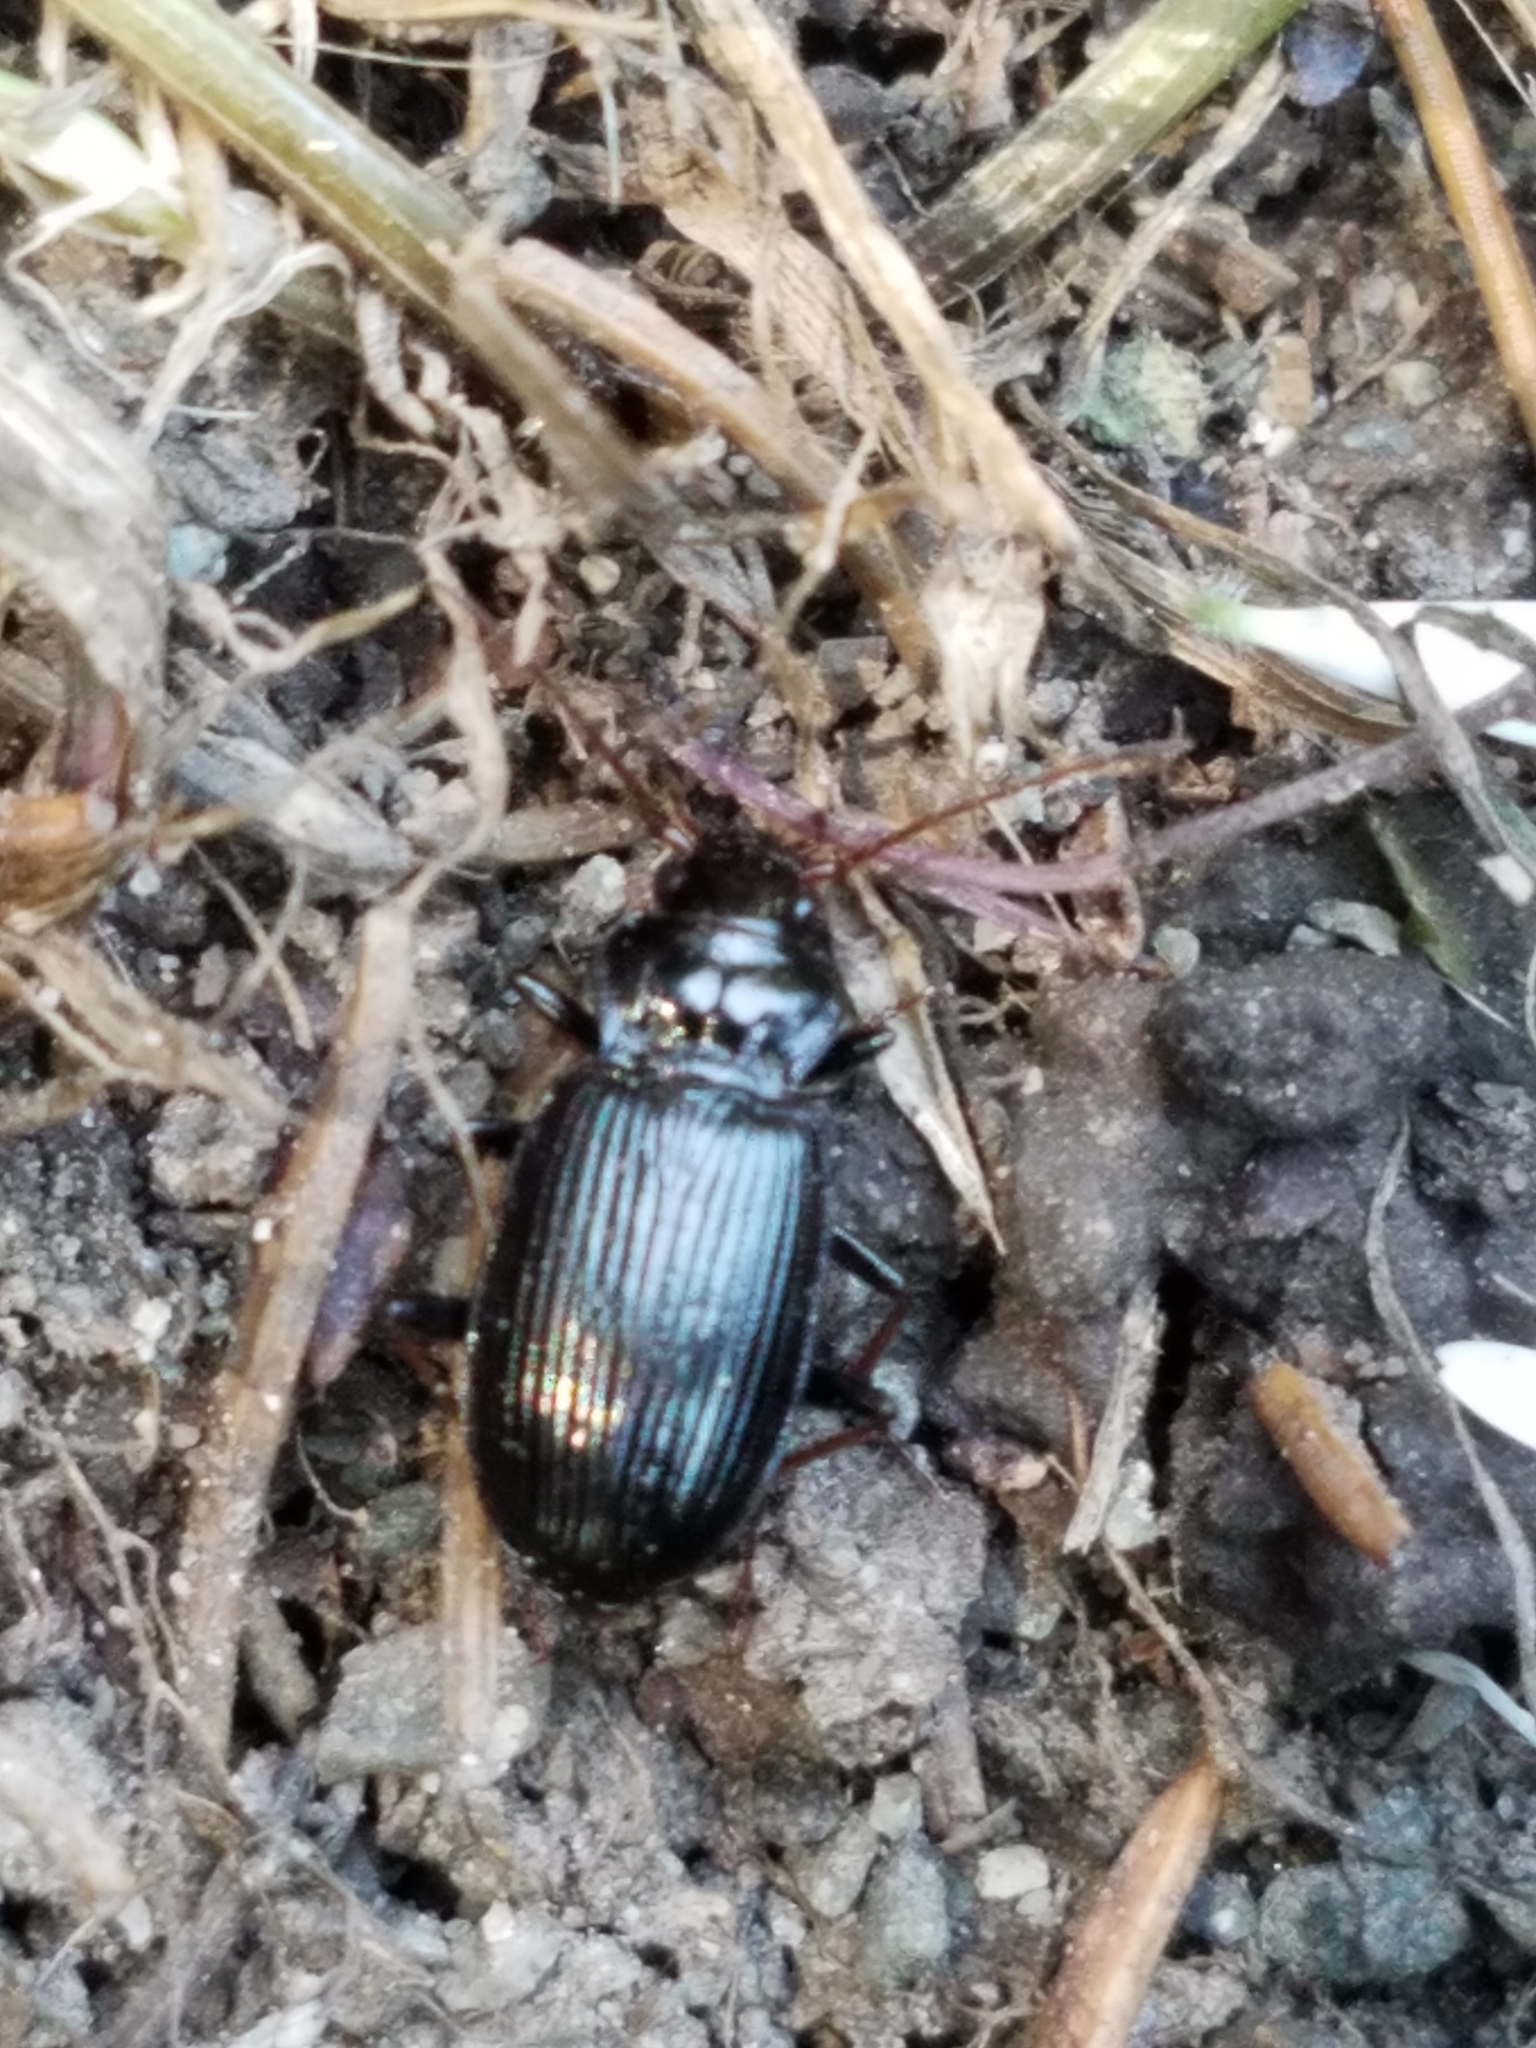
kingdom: Animalia
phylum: Arthropoda
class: Insecta
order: Coleoptera
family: Carabidae
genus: Nebria
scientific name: Nebria brevicollis
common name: Short-necked gazelle beetle
